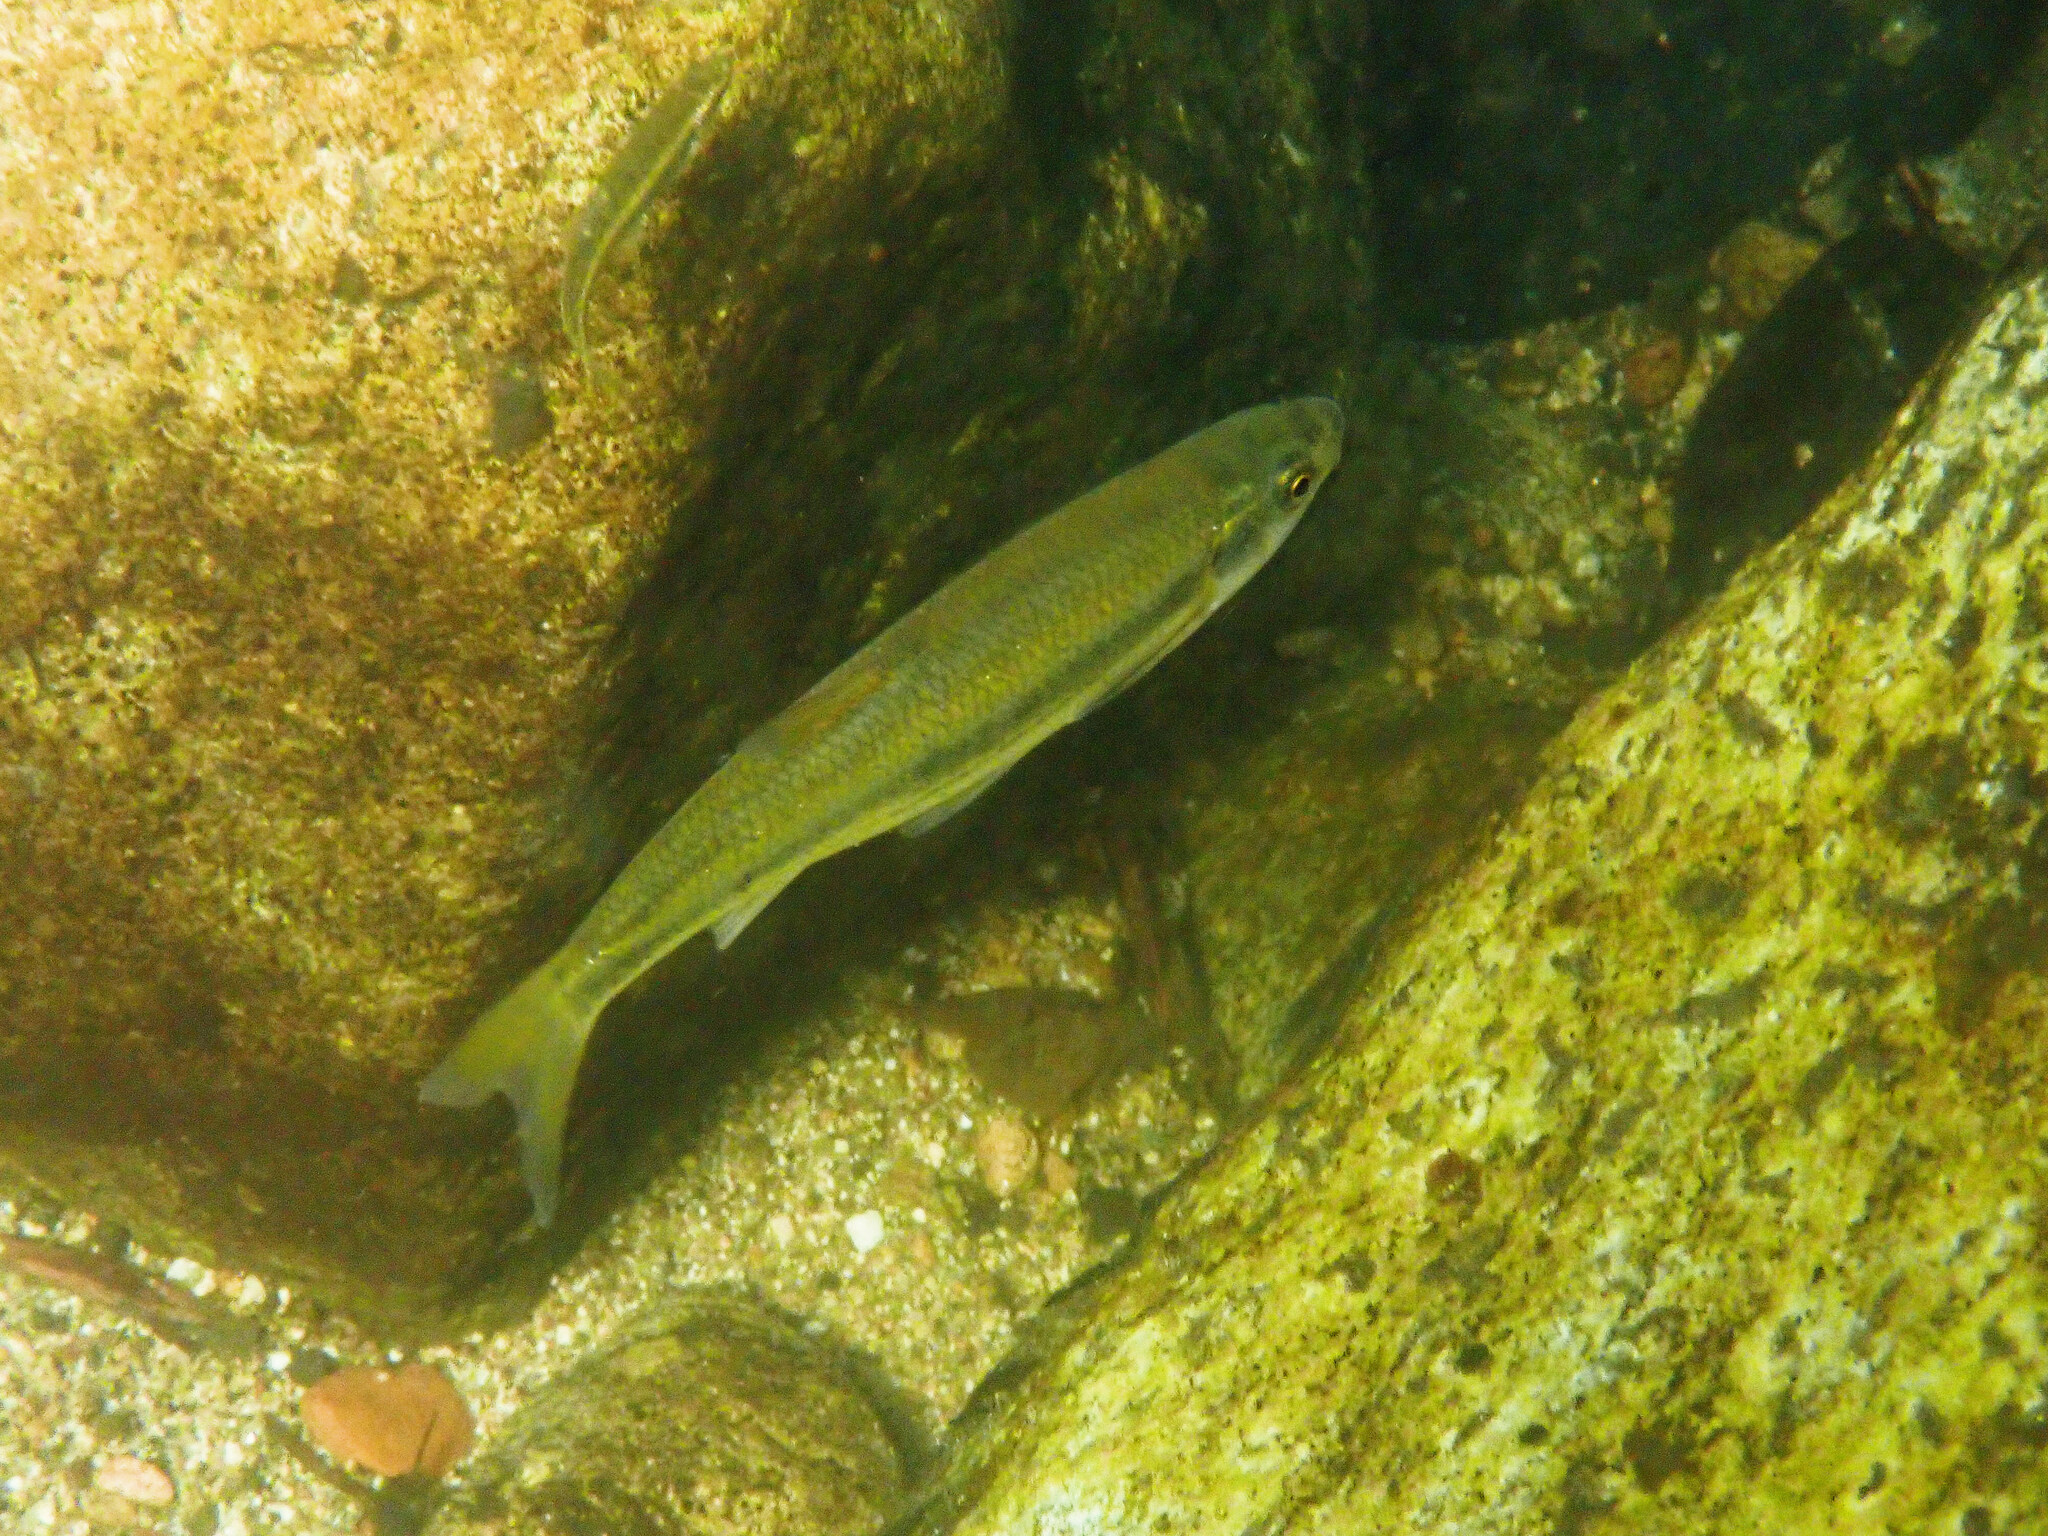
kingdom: Animalia
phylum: Chordata
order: Cypriniformes
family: Cyprinidae
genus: Telestes
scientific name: Telestes souffia
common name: Souffia
